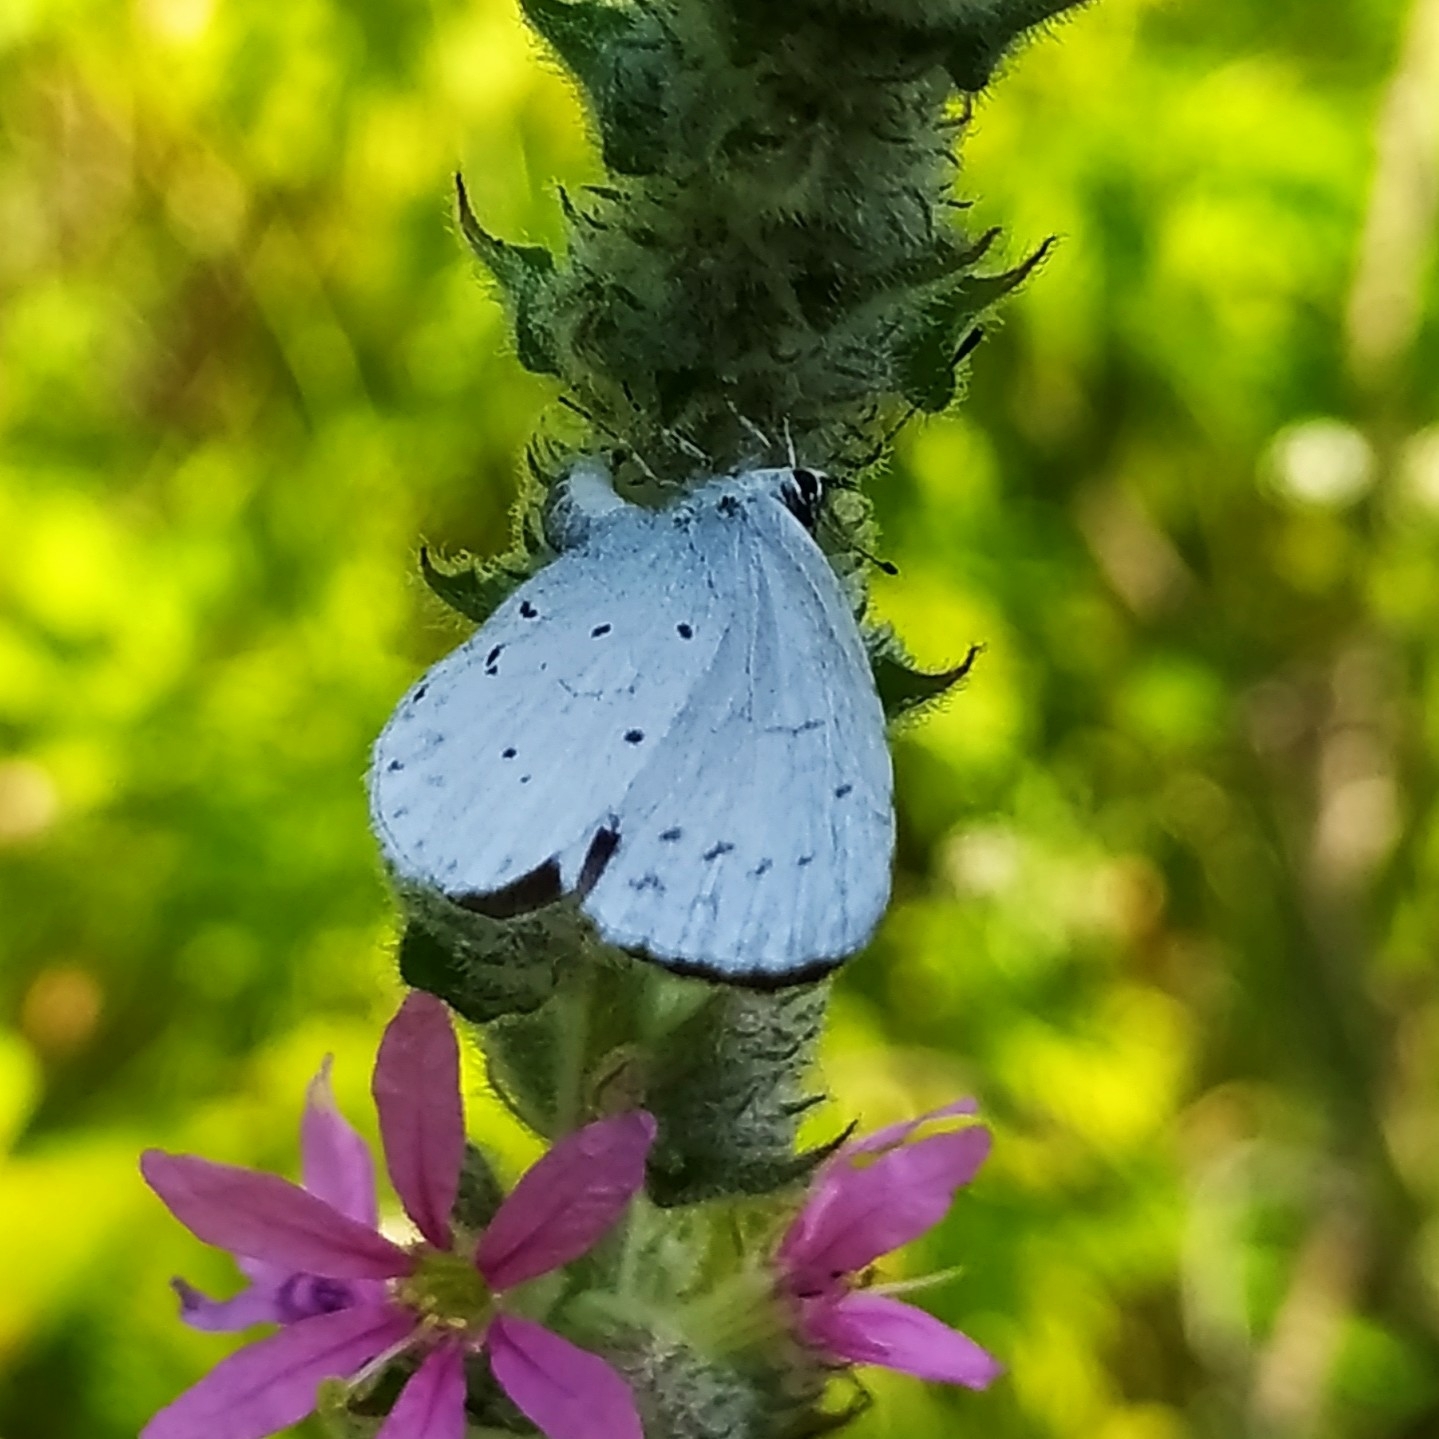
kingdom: Animalia
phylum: Arthropoda
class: Insecta
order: Lepidoptera
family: Lycaenidae
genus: Celastrina
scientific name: Celastrina argiolus
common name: Holly blue
